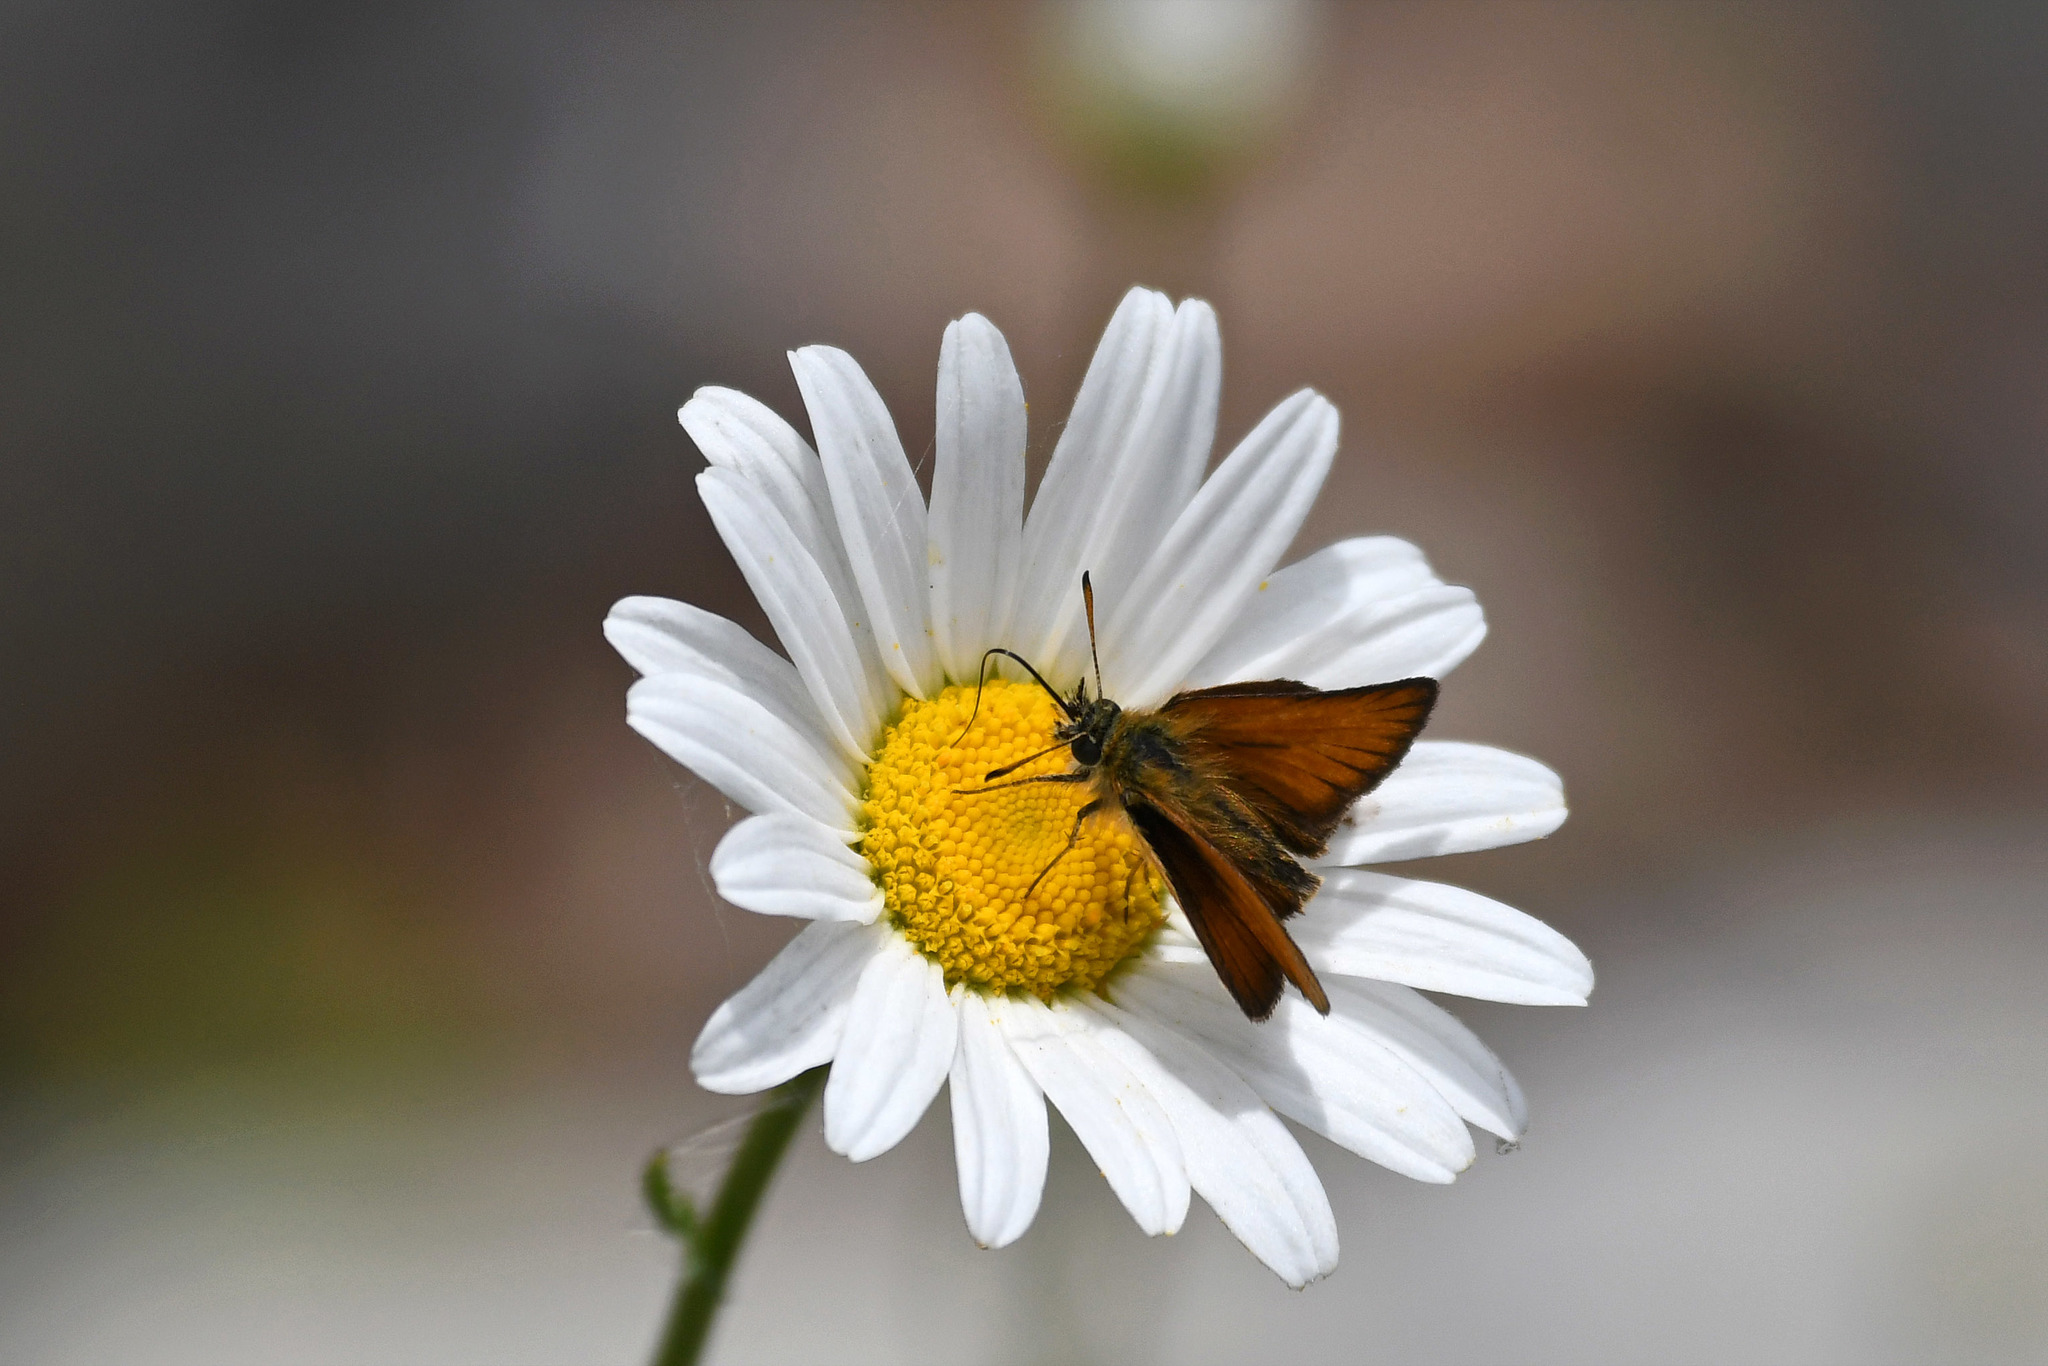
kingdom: Animalia
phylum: Arthropoda
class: Insecta
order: Lepidoptera
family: Hesperiidae
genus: Thymelicus
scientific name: Thymelicus lineola
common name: Essex skipper
